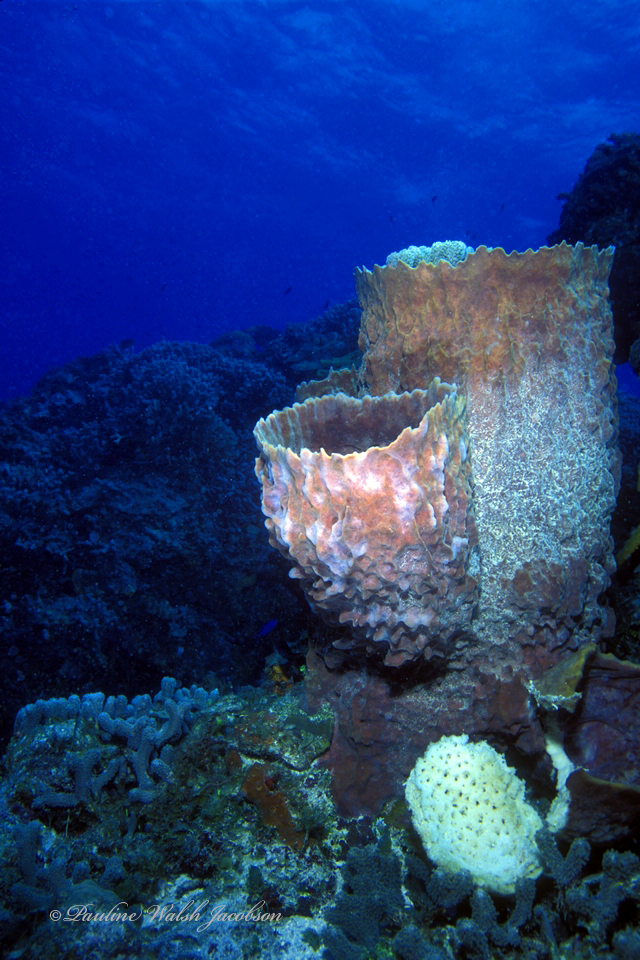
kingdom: Animalia
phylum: Porifera
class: Demospongiae
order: Haplosclerida
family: Petrosiidae
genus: Xestospongia
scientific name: Xestospongia muta
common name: Giant barrel sponge
